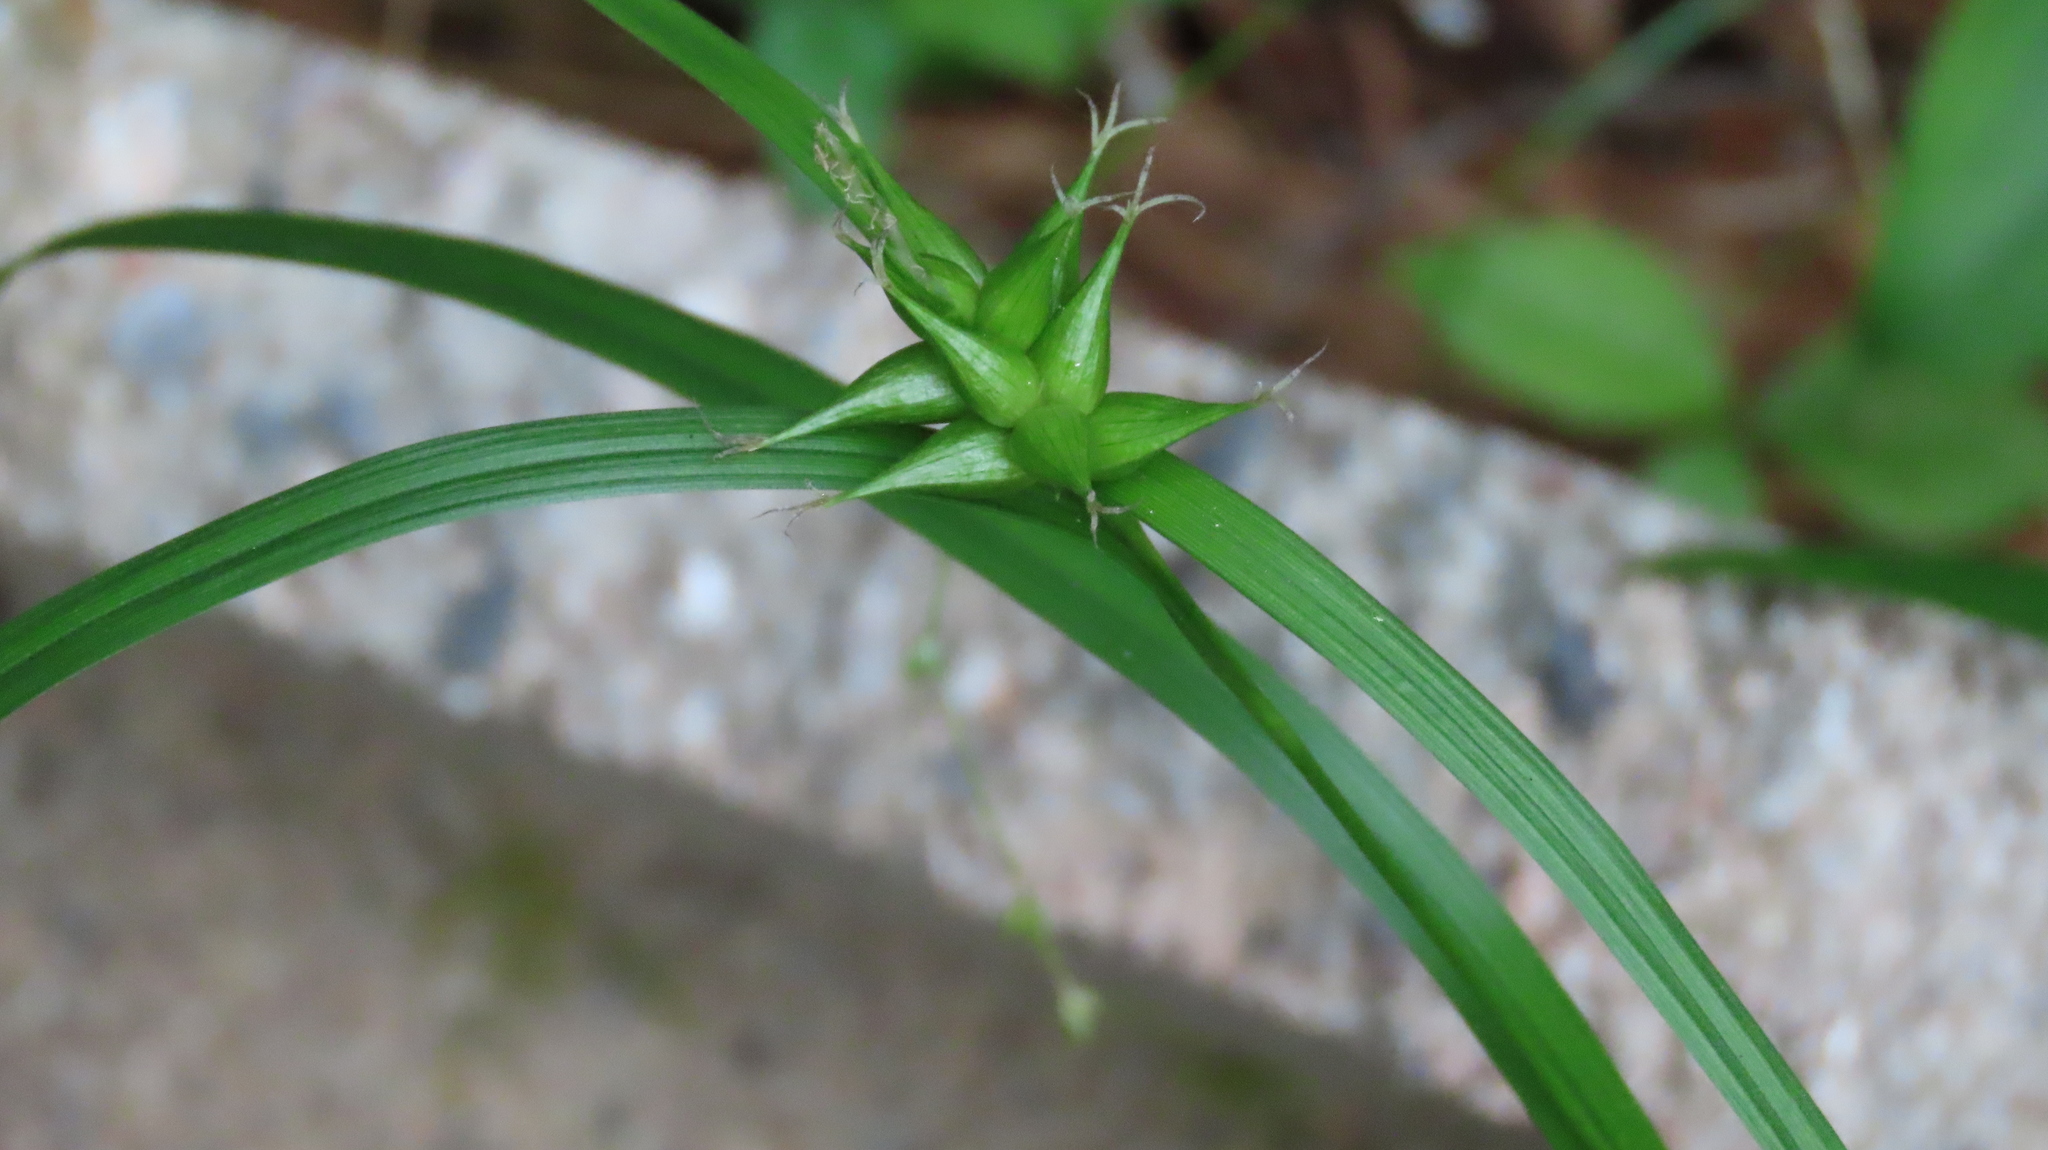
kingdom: Plantae
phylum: Tracheophyta
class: Liliopsida
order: Poales
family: Cyperaceae
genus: Carex
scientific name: Carex intumescens
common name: Greater bladder sedge
